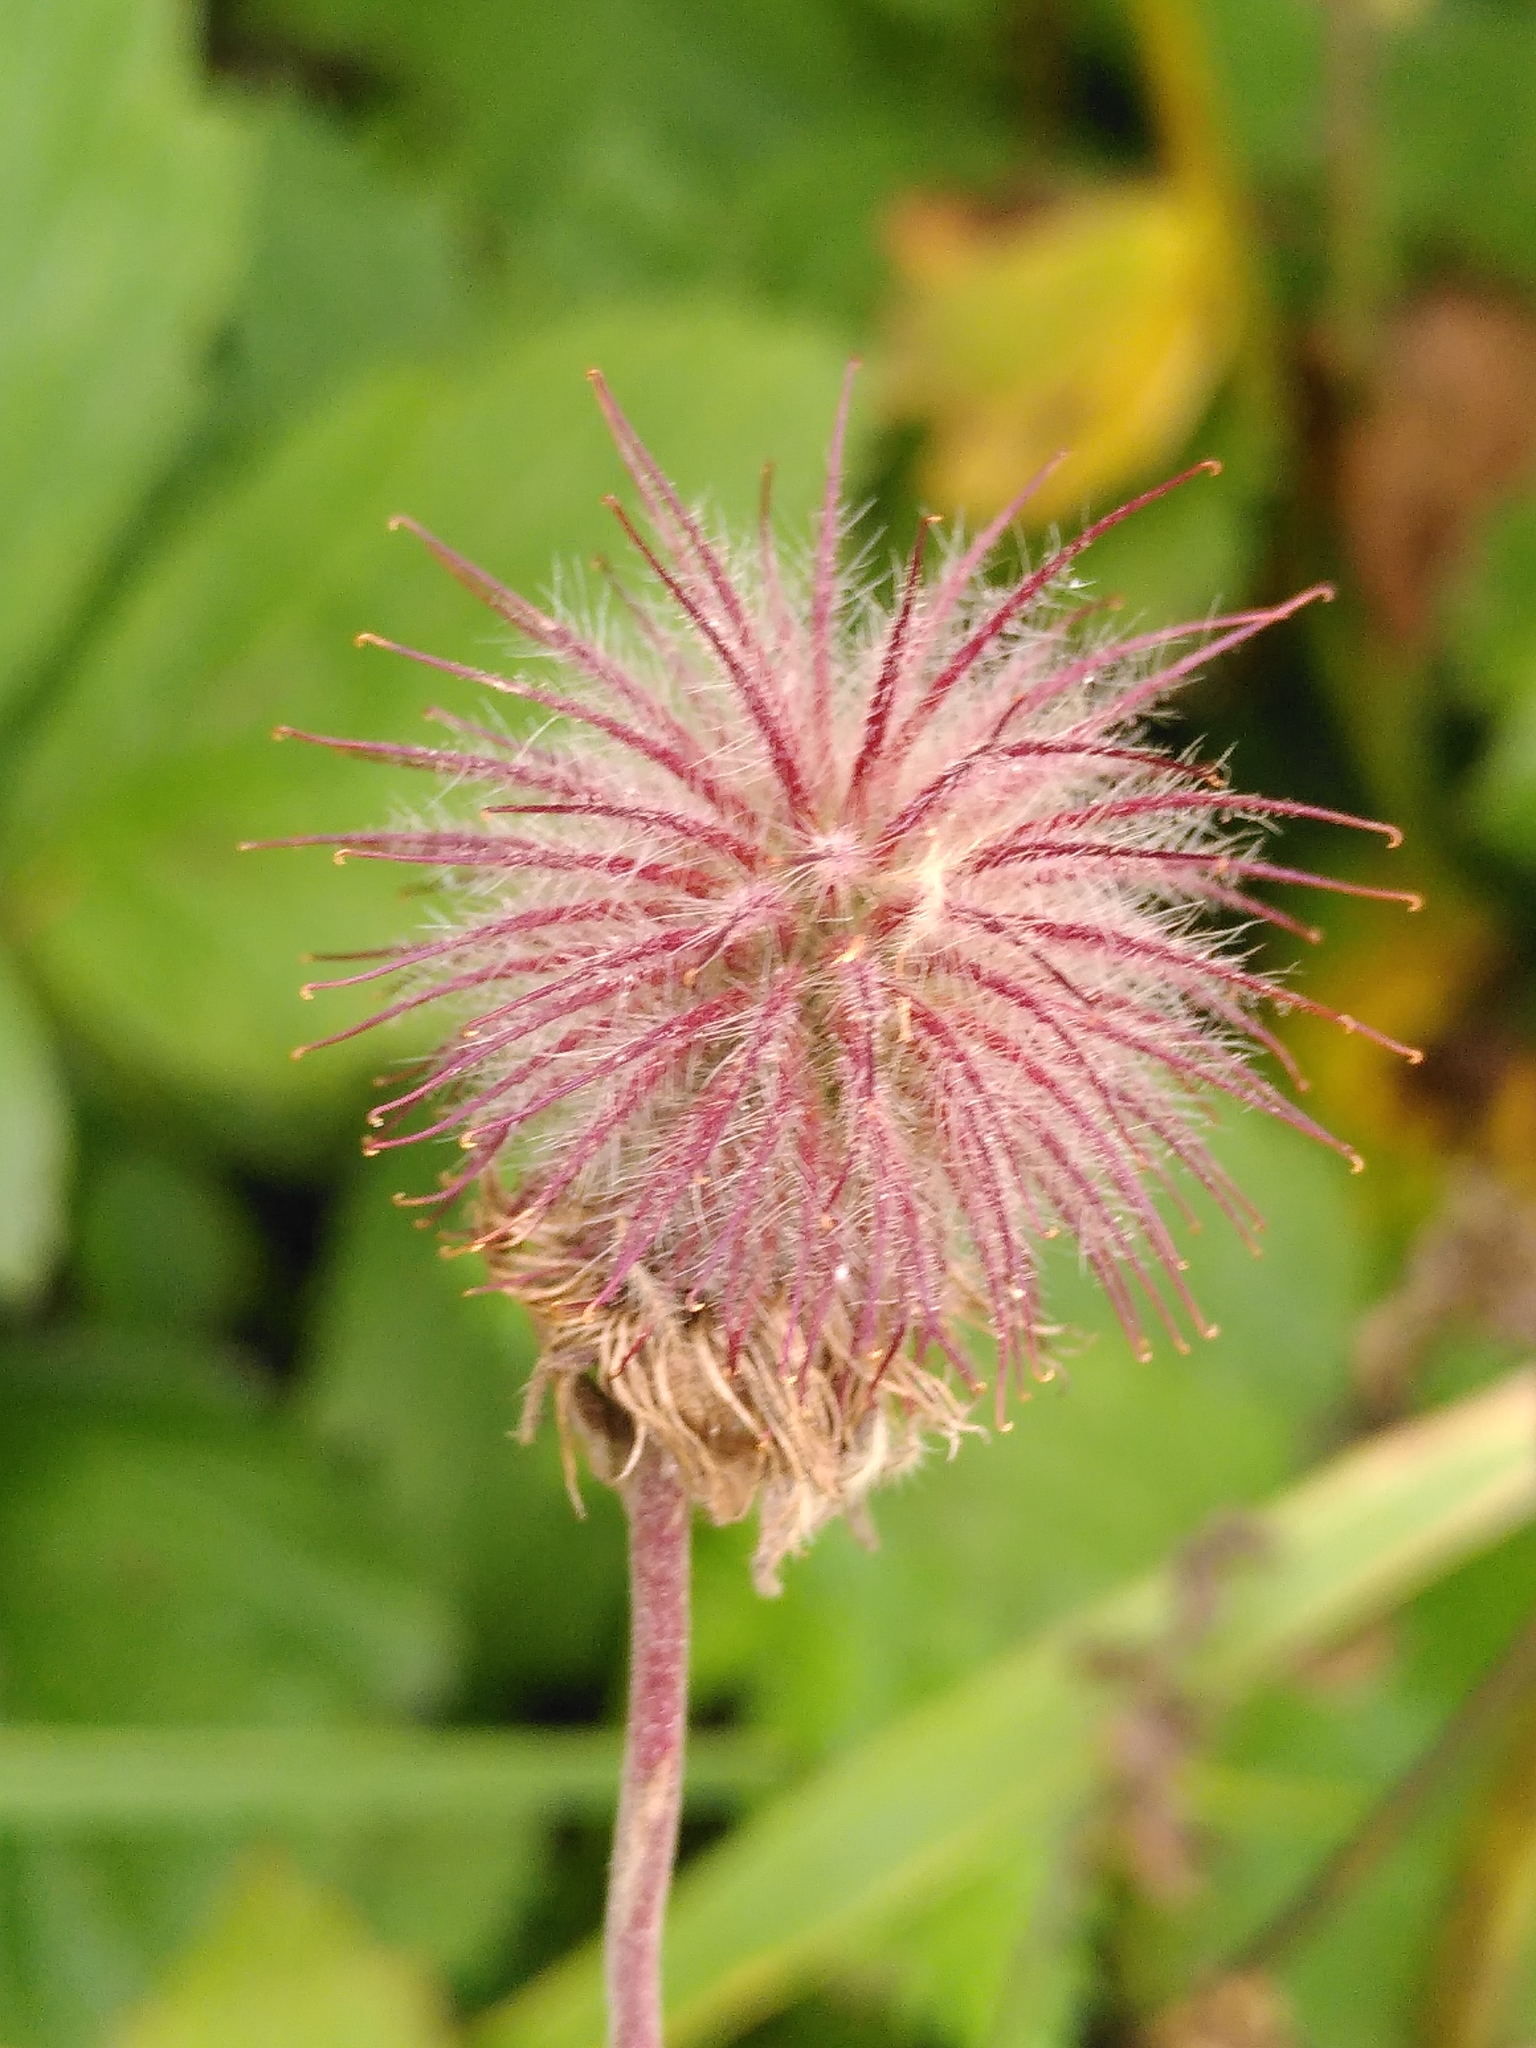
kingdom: Plantae
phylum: Tracheophyta
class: Magnoliopsida
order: Rosales
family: Rosaceae
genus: Geum
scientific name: Geum rivale
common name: Water avens
